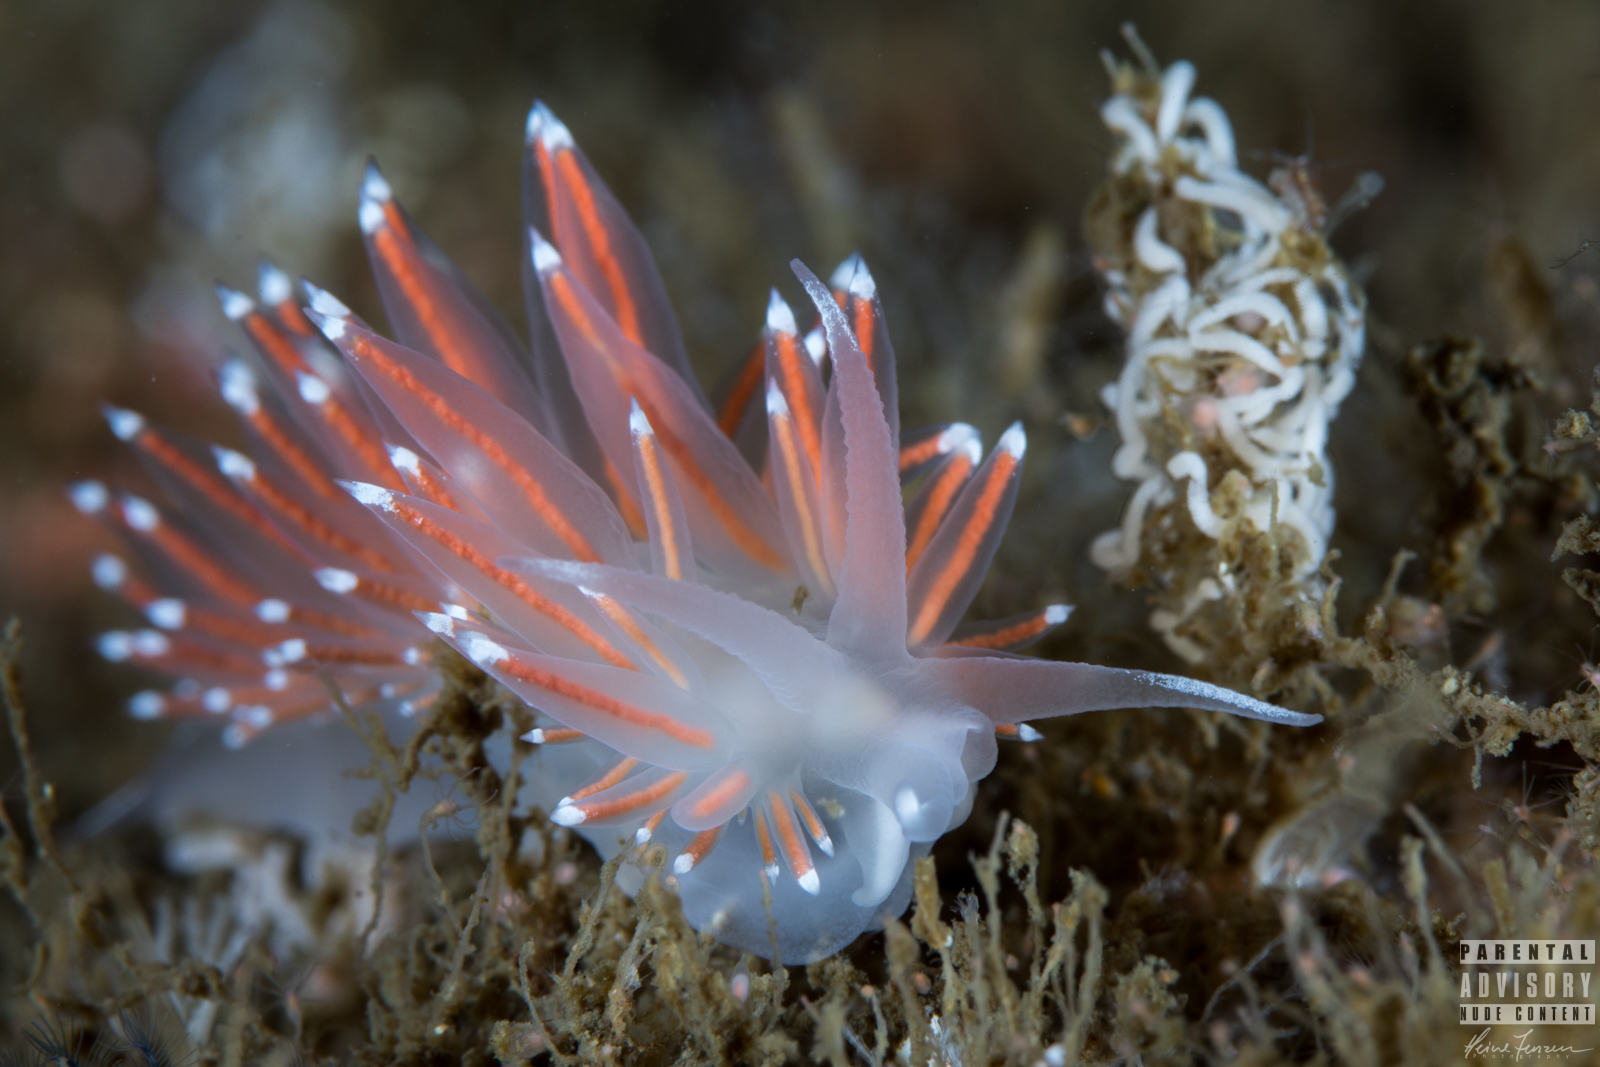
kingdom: Animalia
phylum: Mollusca
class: Gastropoda
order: Nudibranchia
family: Coryphellidae
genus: Coryphella
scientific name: Coryphella browni
